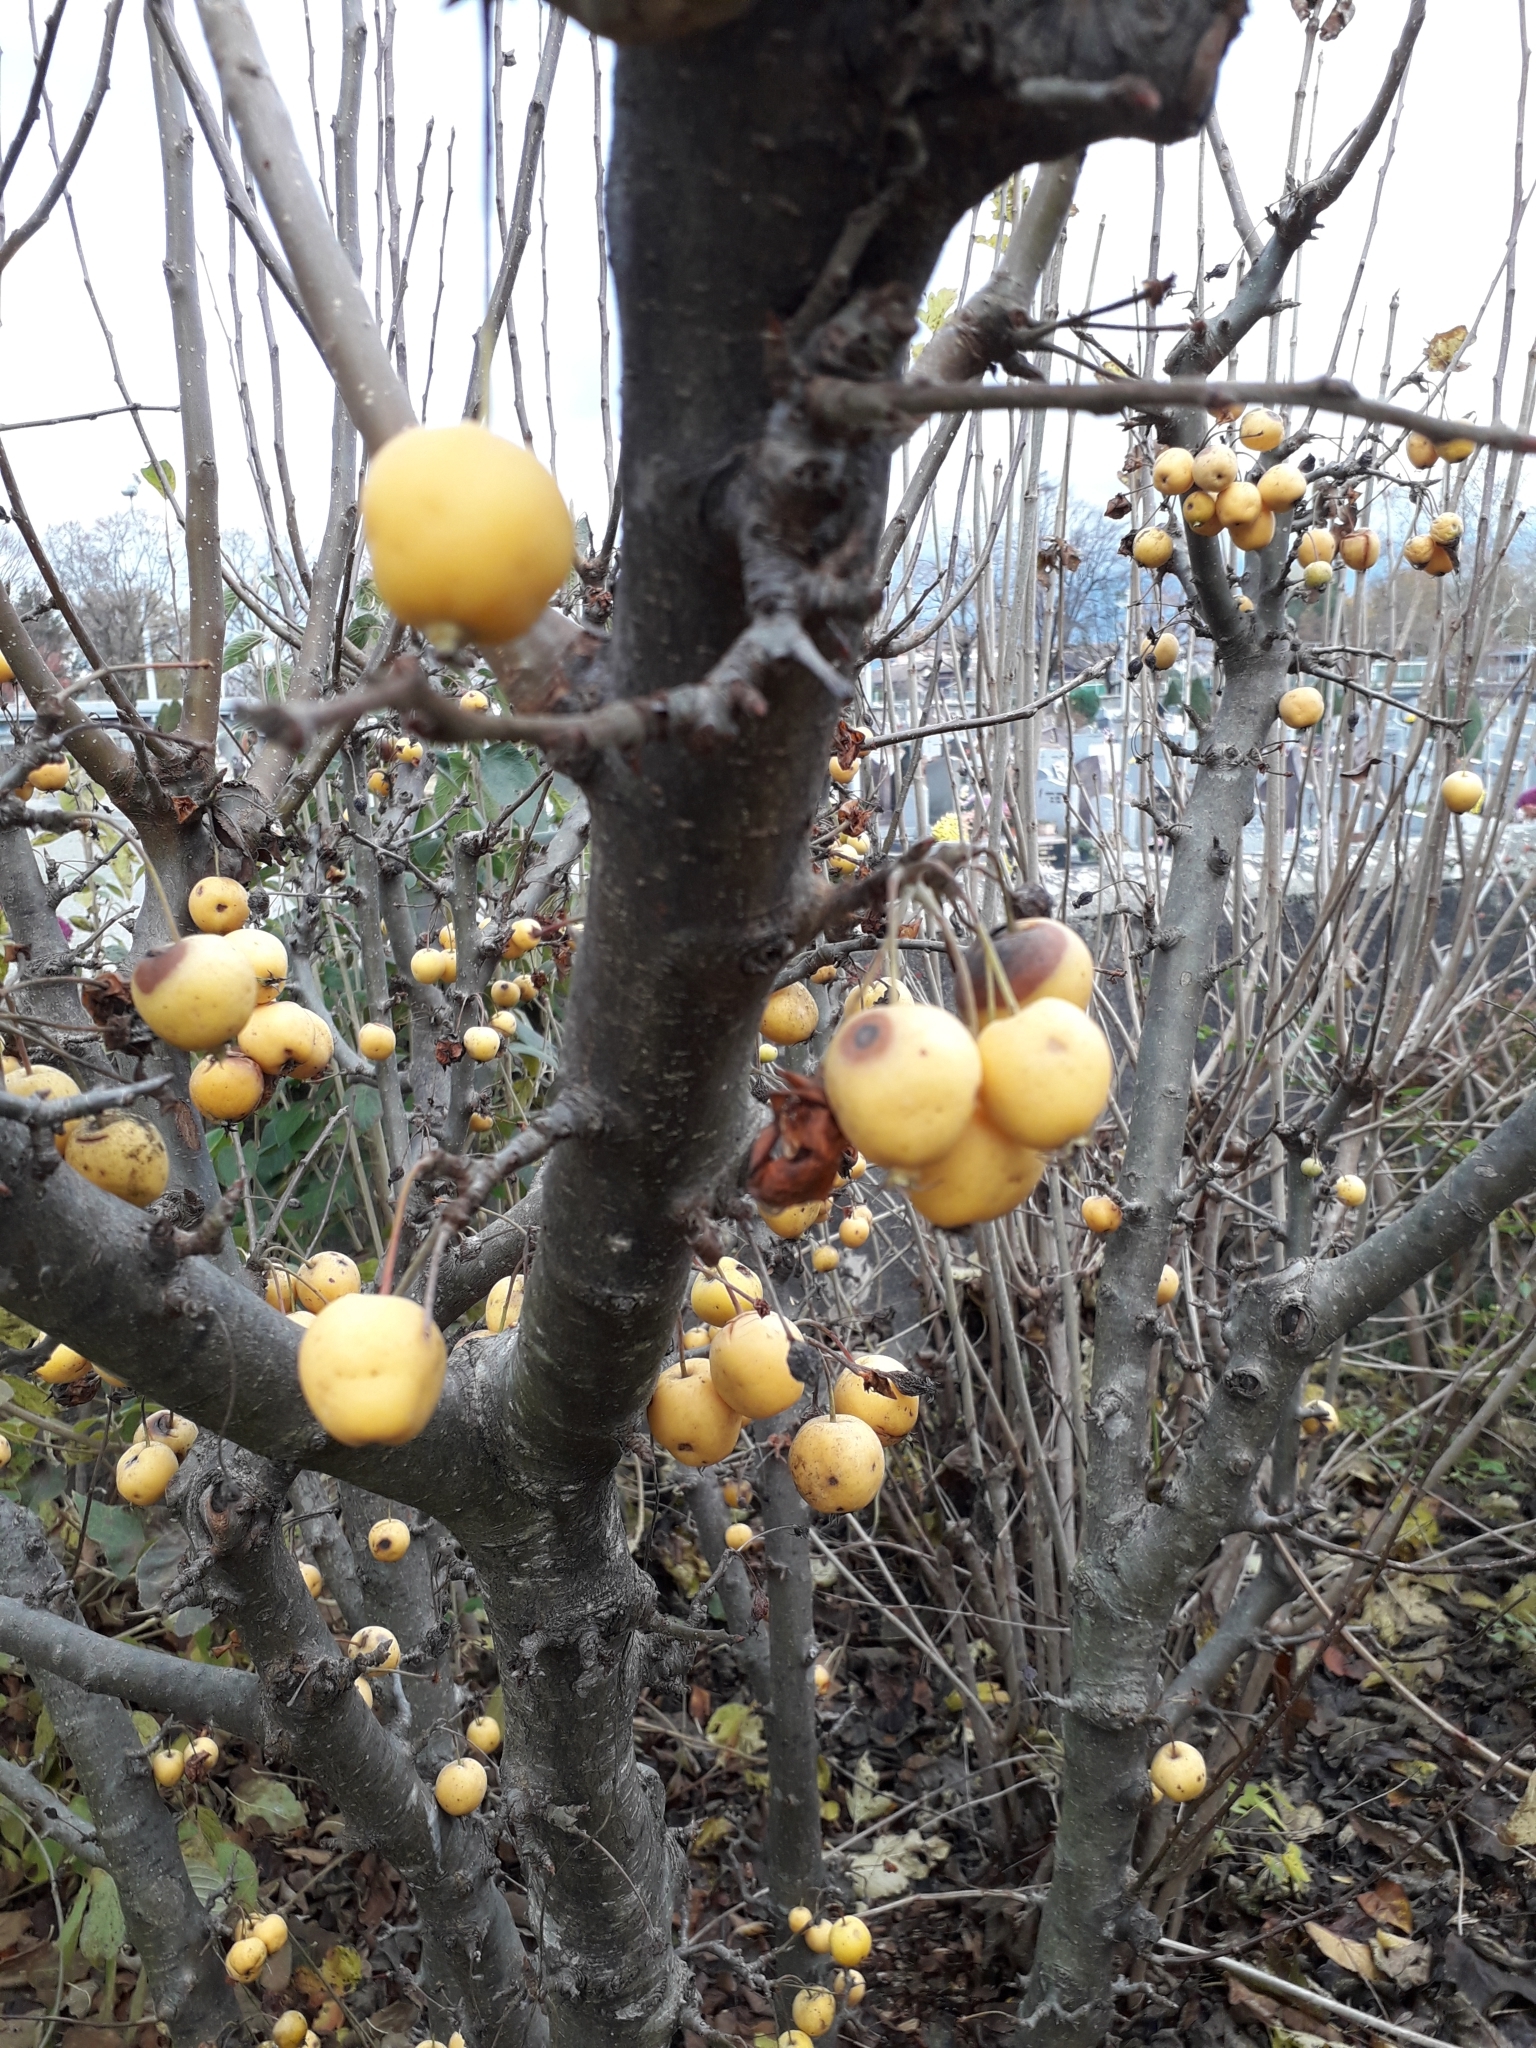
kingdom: Plantae
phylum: Tracheophyta
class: Magnoliopsida
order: Rosales
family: Rosaceae
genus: Malus
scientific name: Malus
